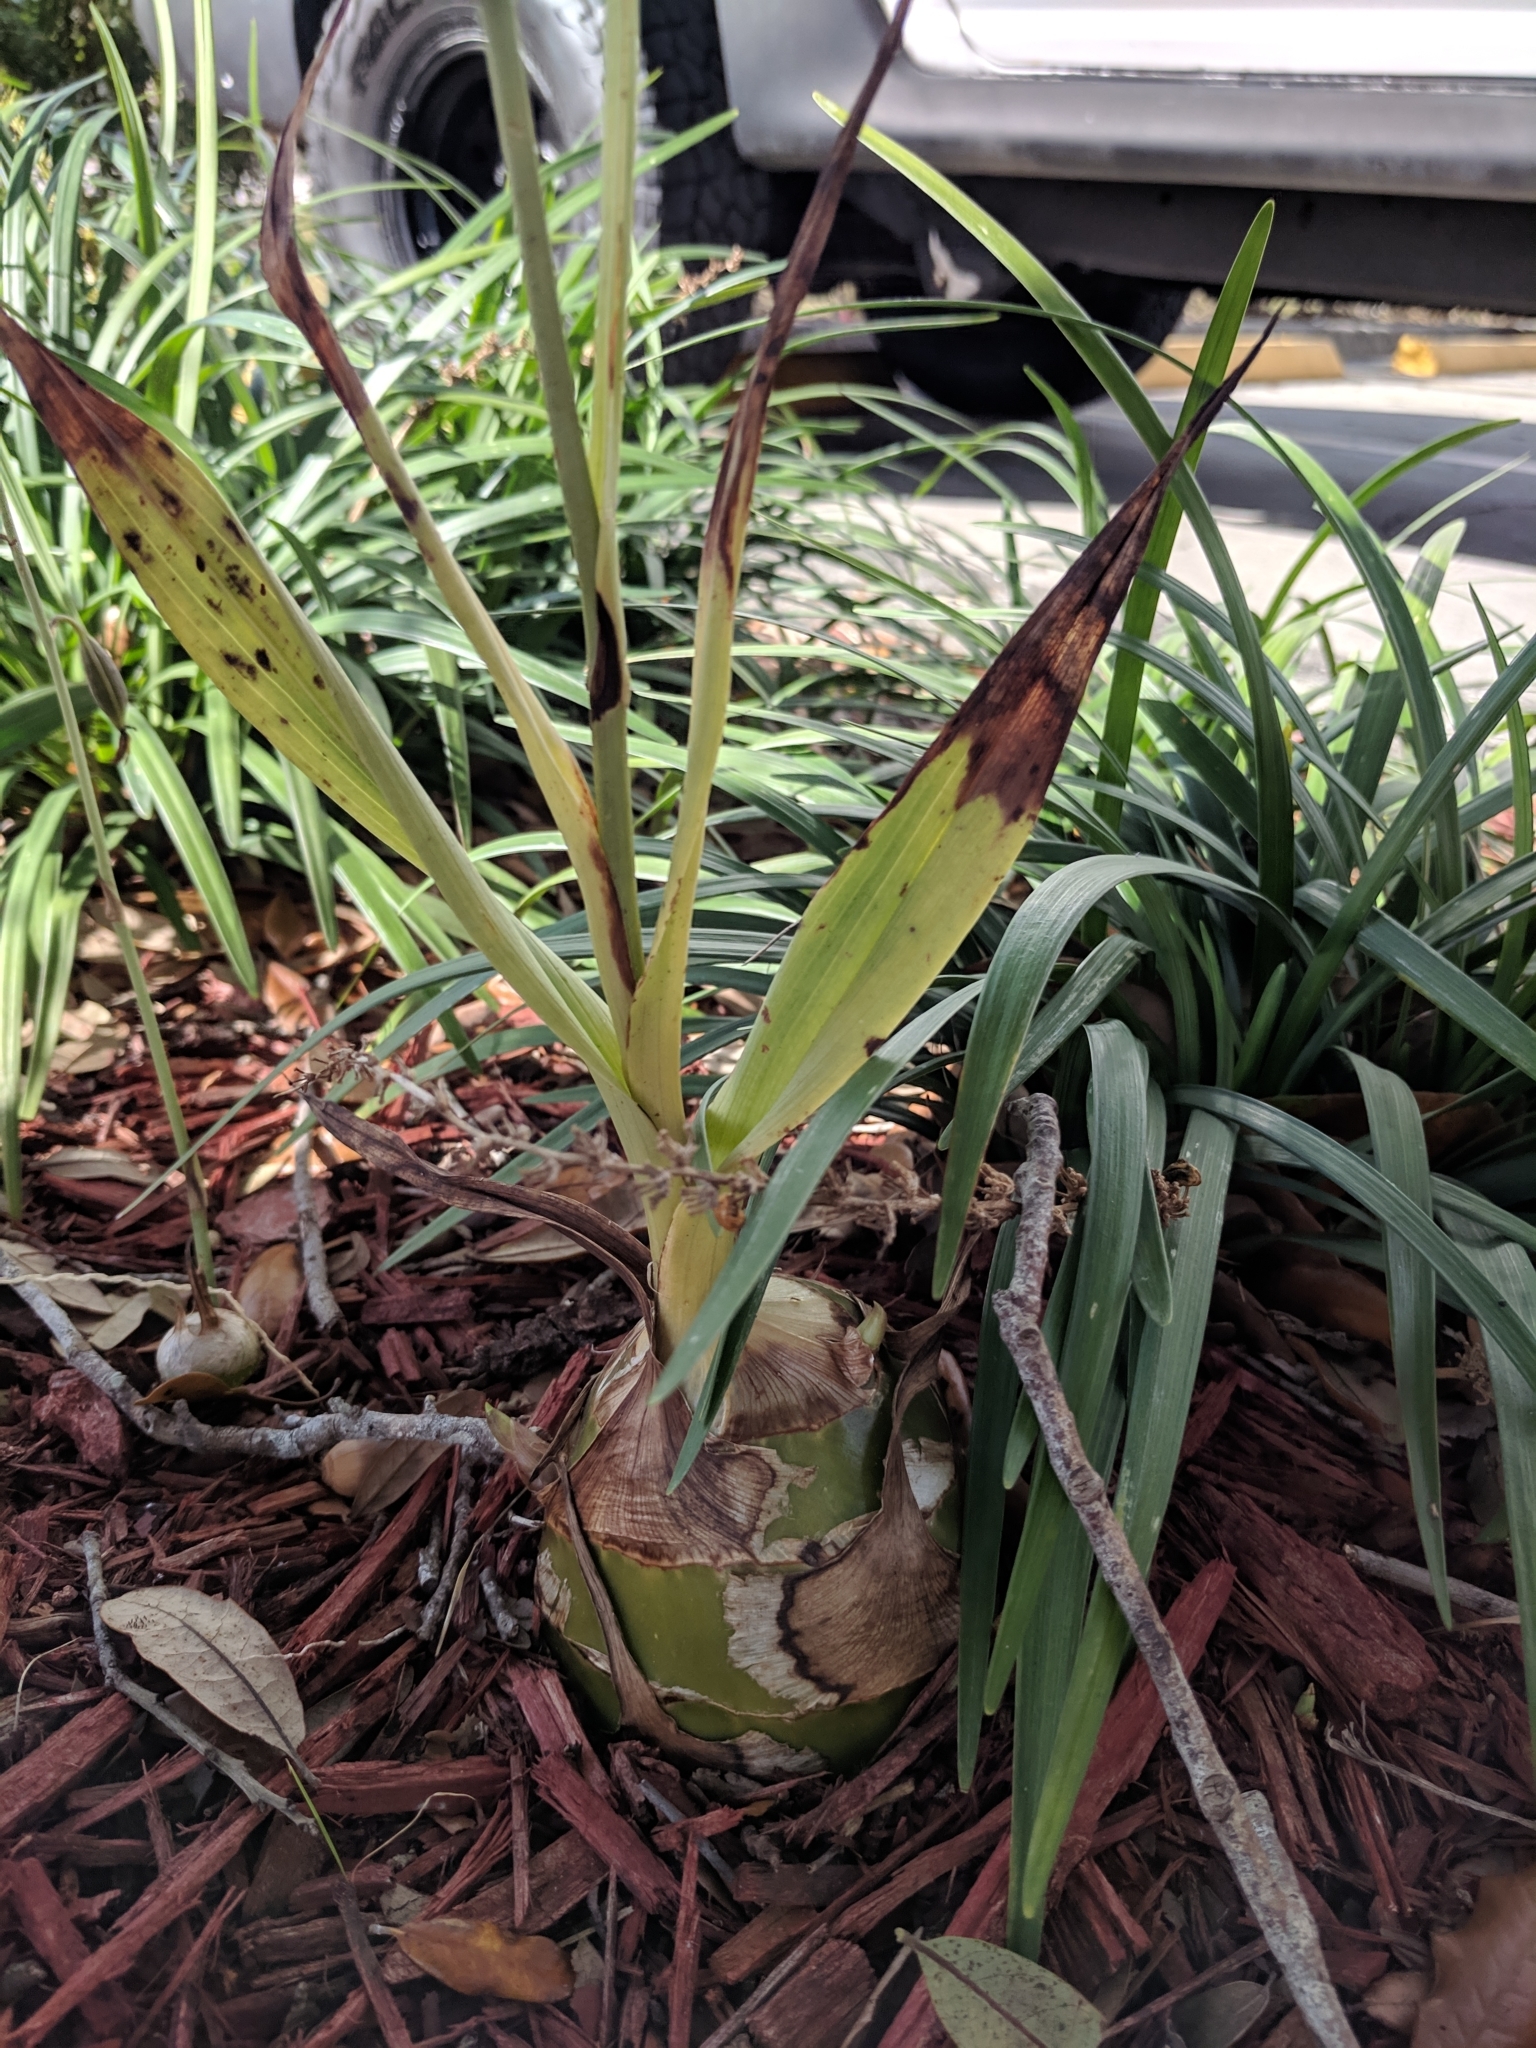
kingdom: Plantae
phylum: Tracheophyta
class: Liliopsida
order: Asparagales
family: Orchidaceae
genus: Eulophia
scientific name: Eulophia graminea
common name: Orchid
